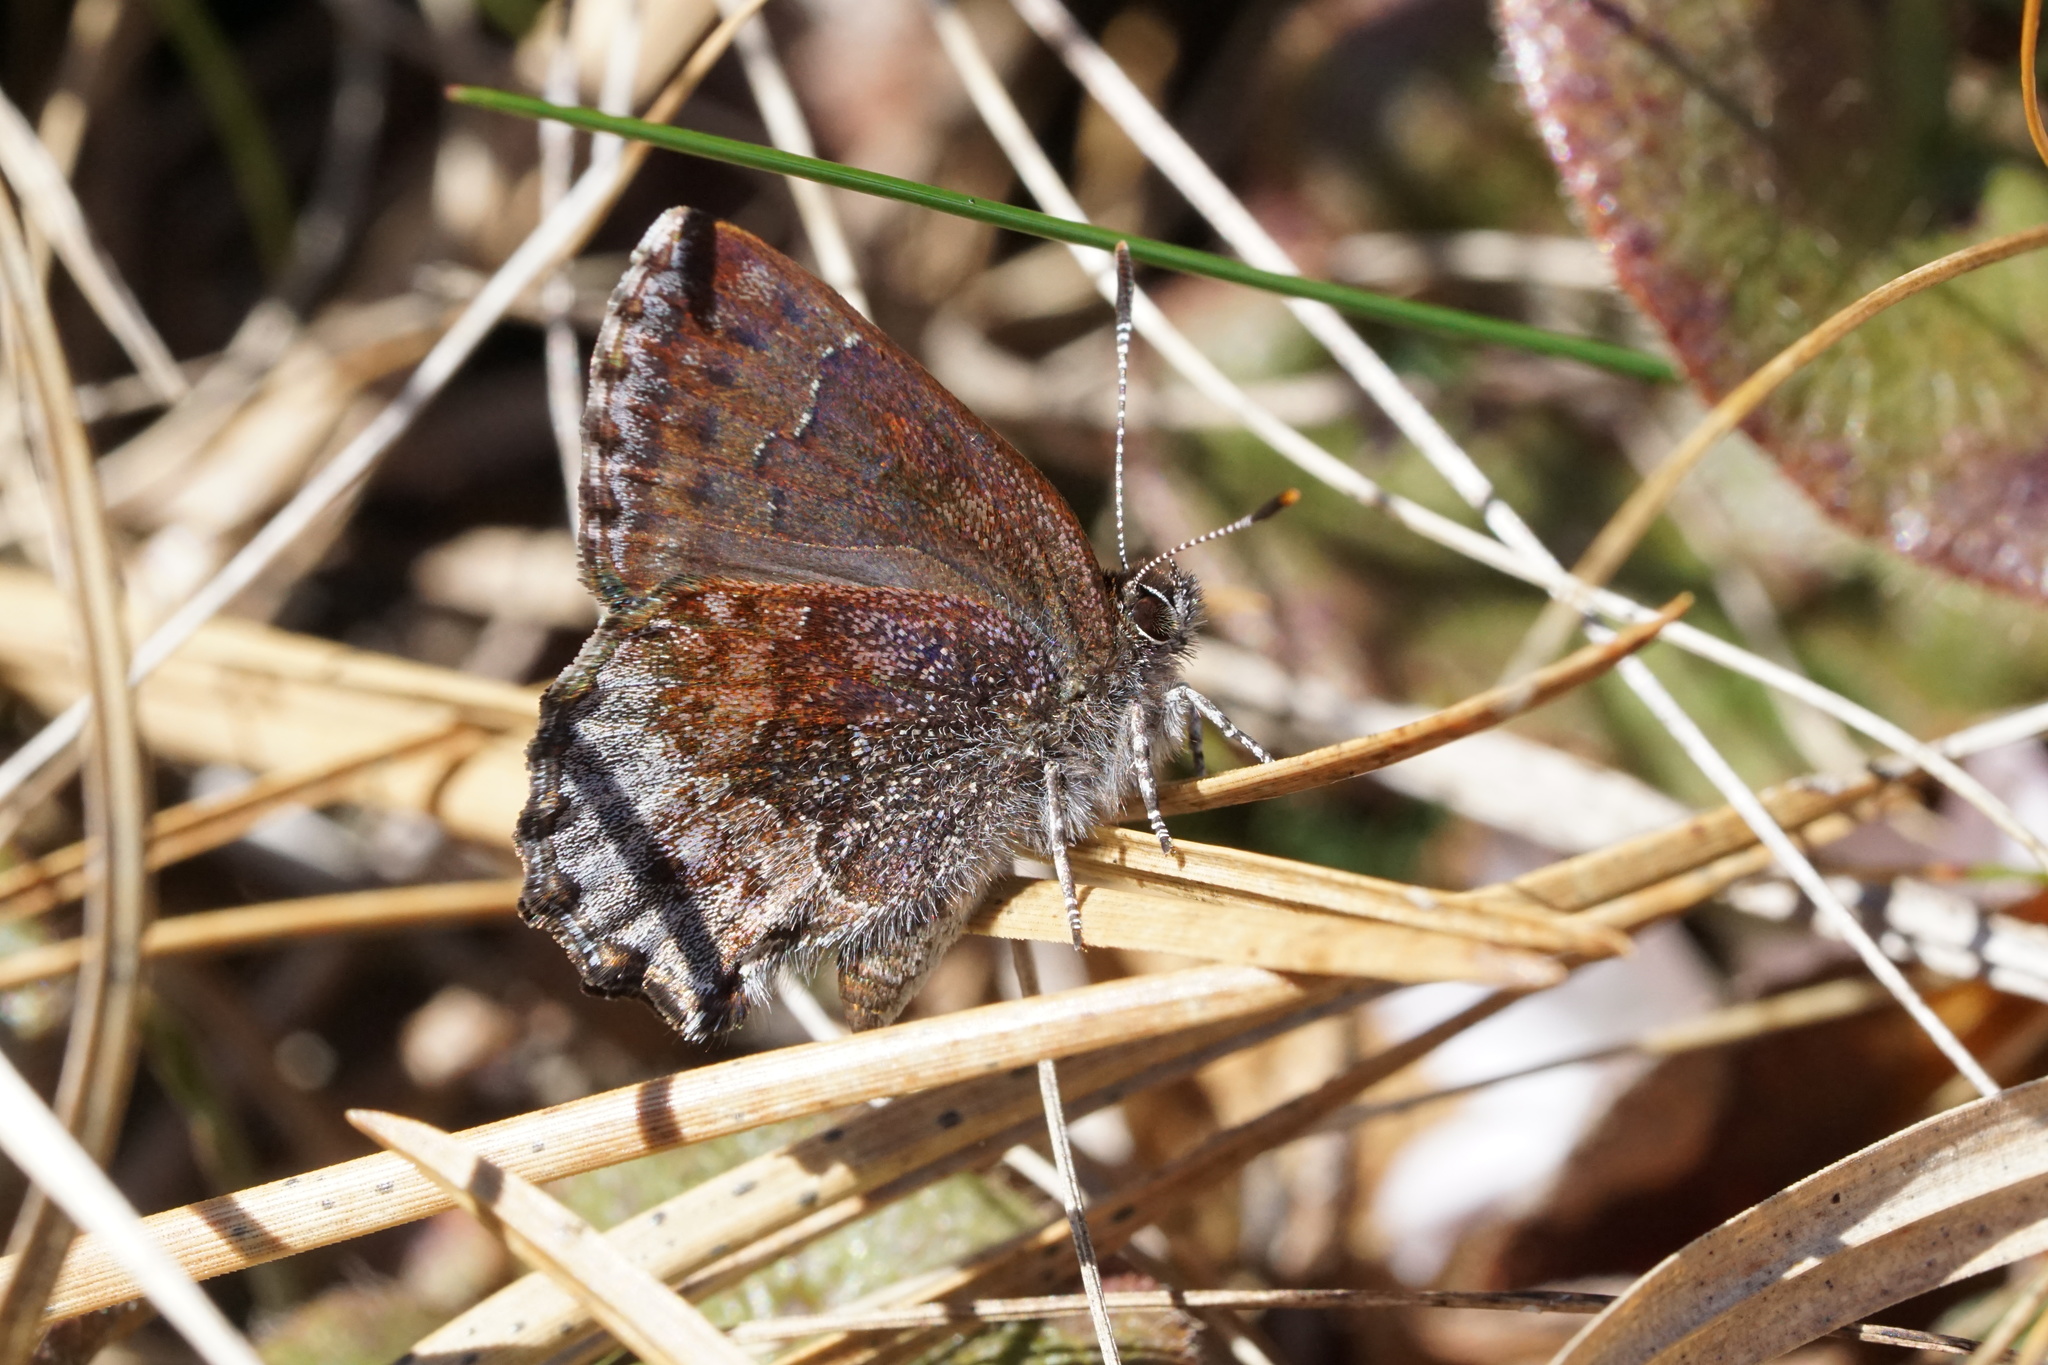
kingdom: Animalia
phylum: Arthropoda
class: Insecta
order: Lepidoptera
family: Lycaenidae
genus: Callophrys
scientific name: Callophrys polios
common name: Hoary elfin
